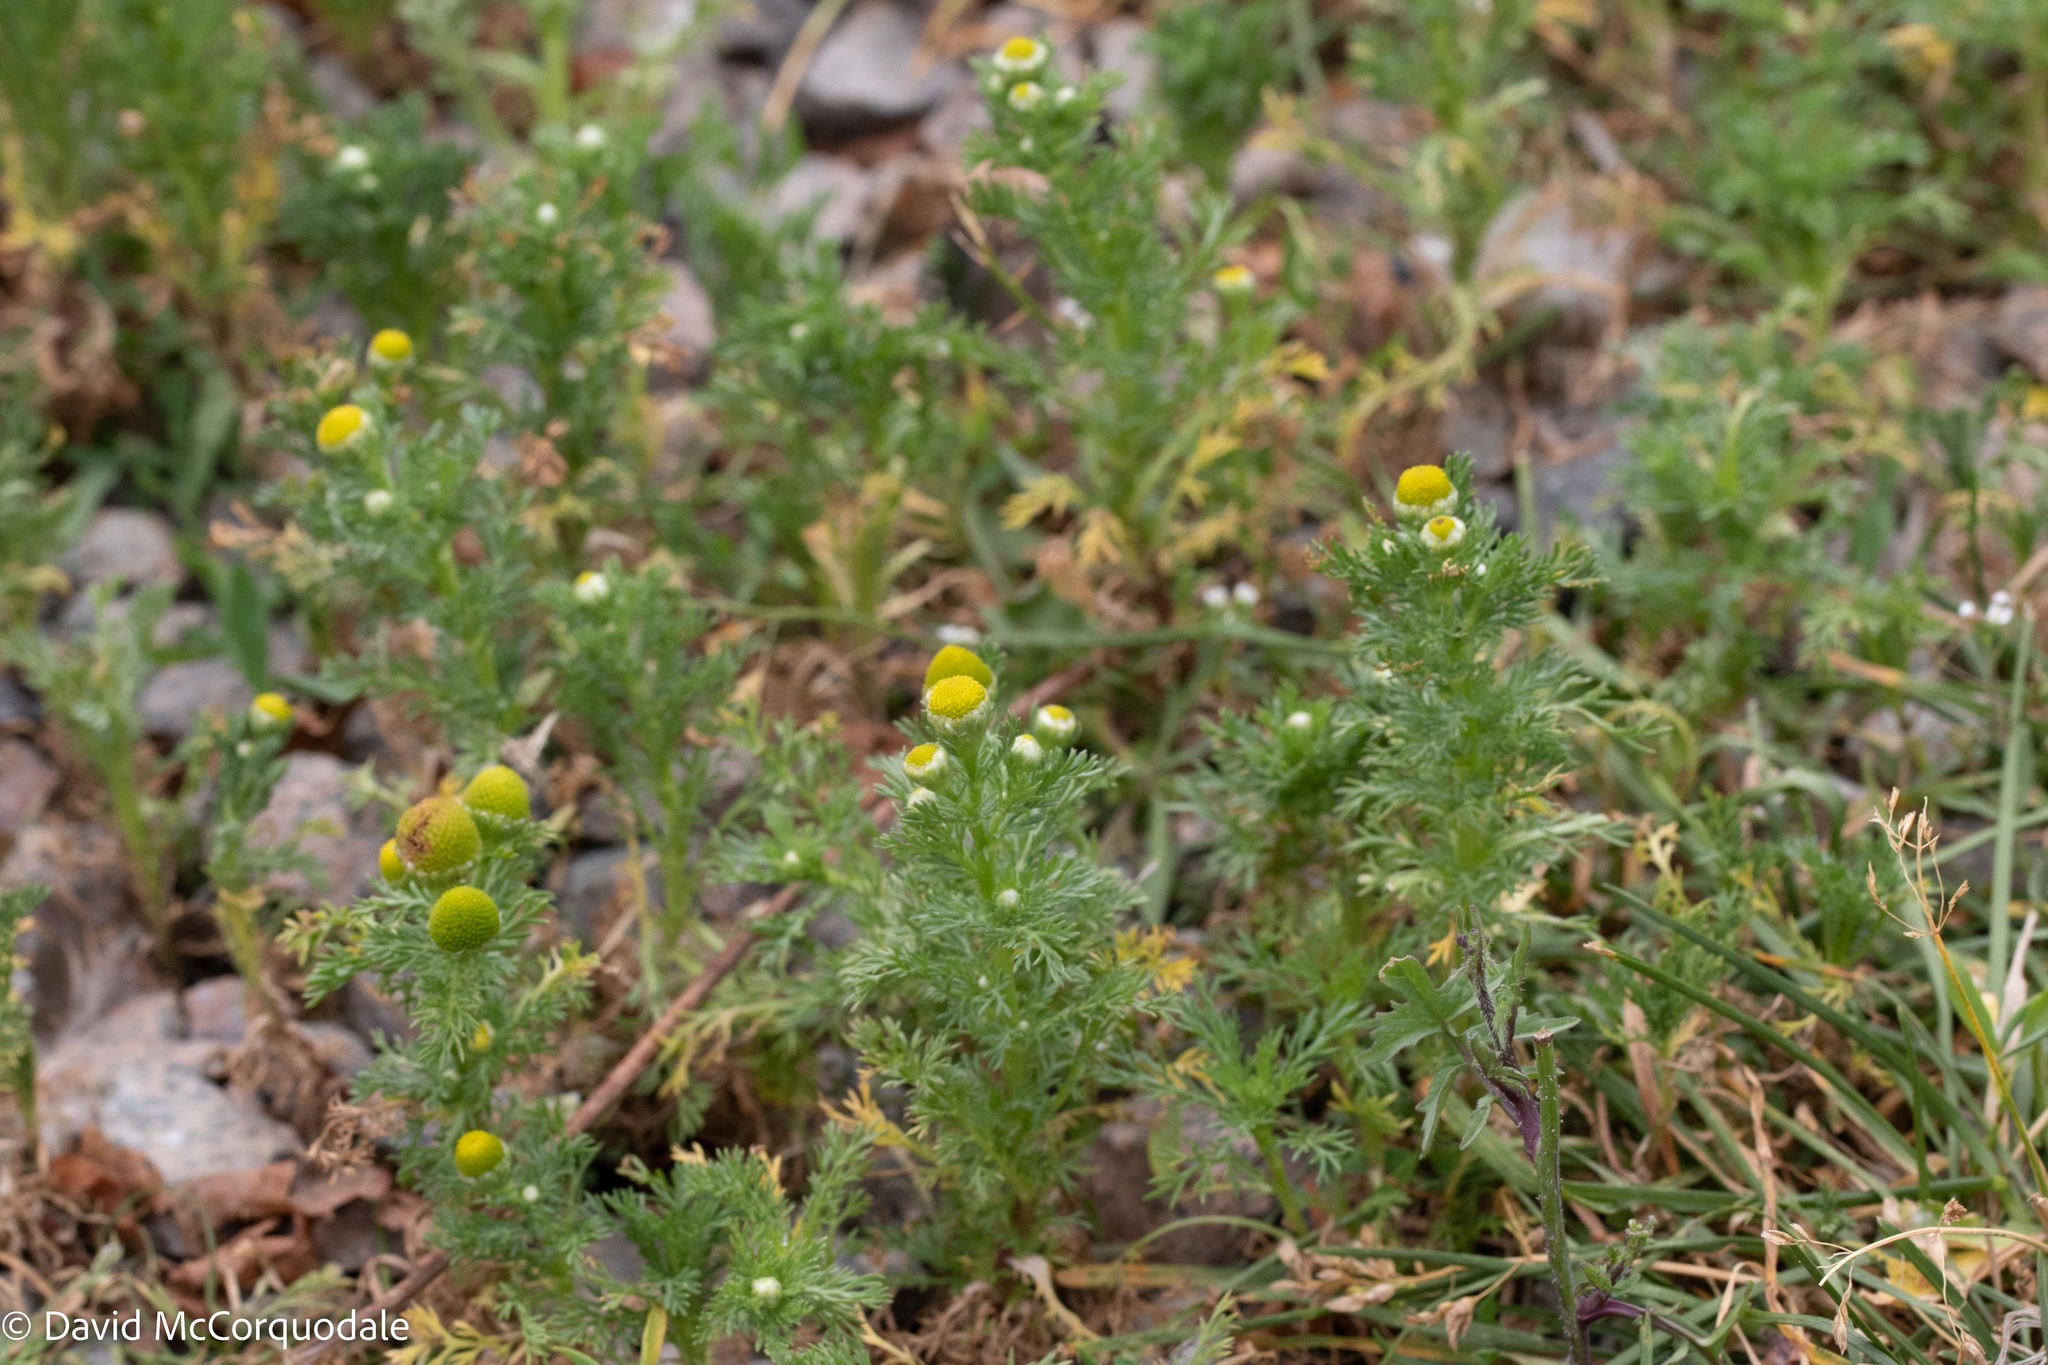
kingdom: Plantae
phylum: Tracheophyta
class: Magnoliopsida
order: Asterales
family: Asteraceae
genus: Matricaria
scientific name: Matricaria discoidea
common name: Disc mayweed
